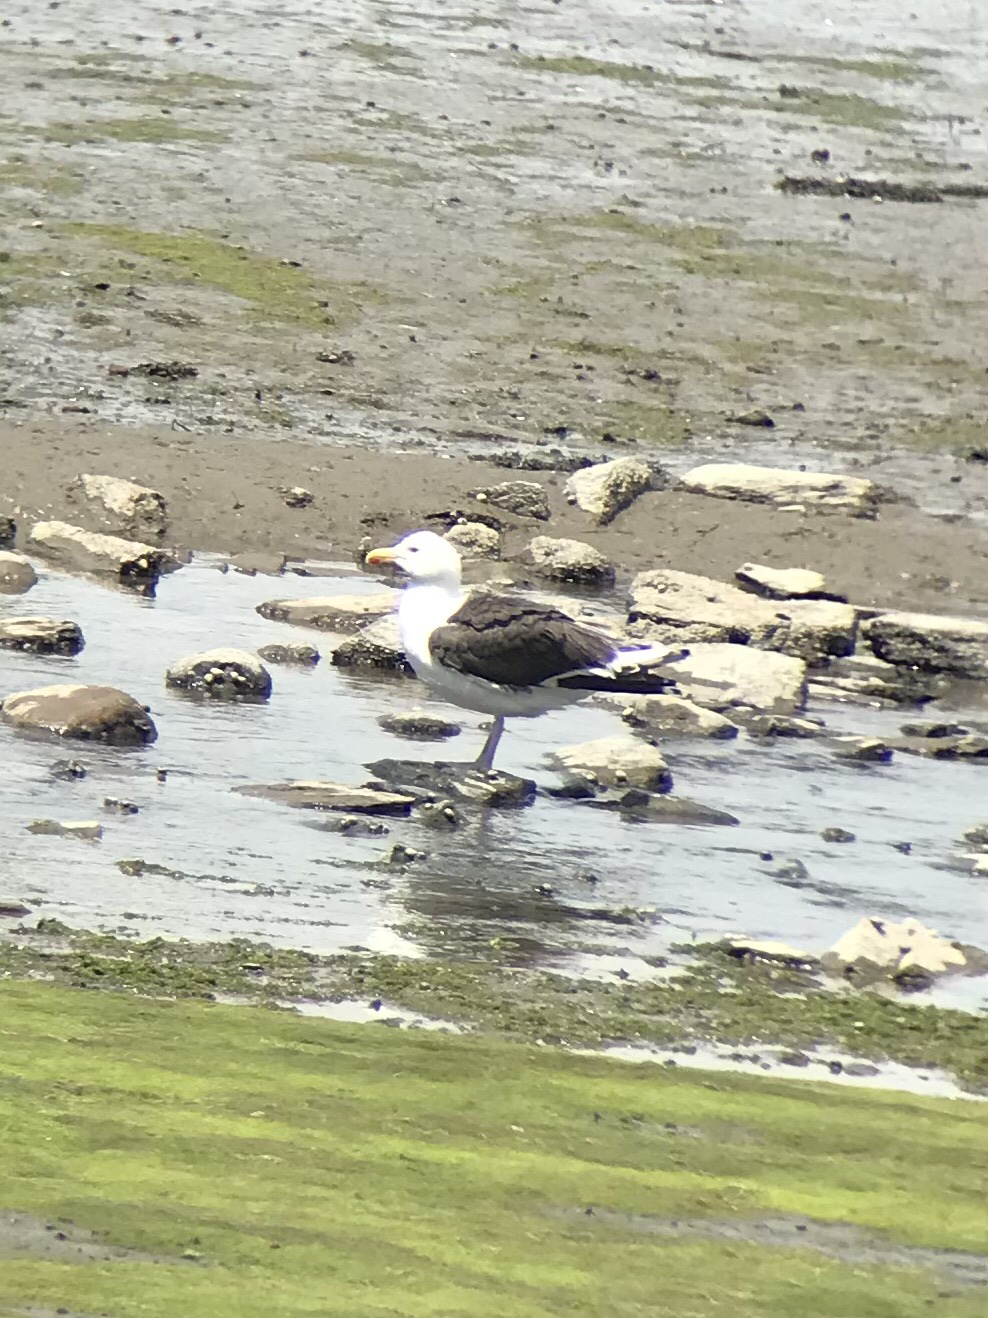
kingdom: Animalia
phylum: Chordata
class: Aves
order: Charadriiformes
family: Laridae
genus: Larus
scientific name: Larus marinus
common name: Great black-backed gull
